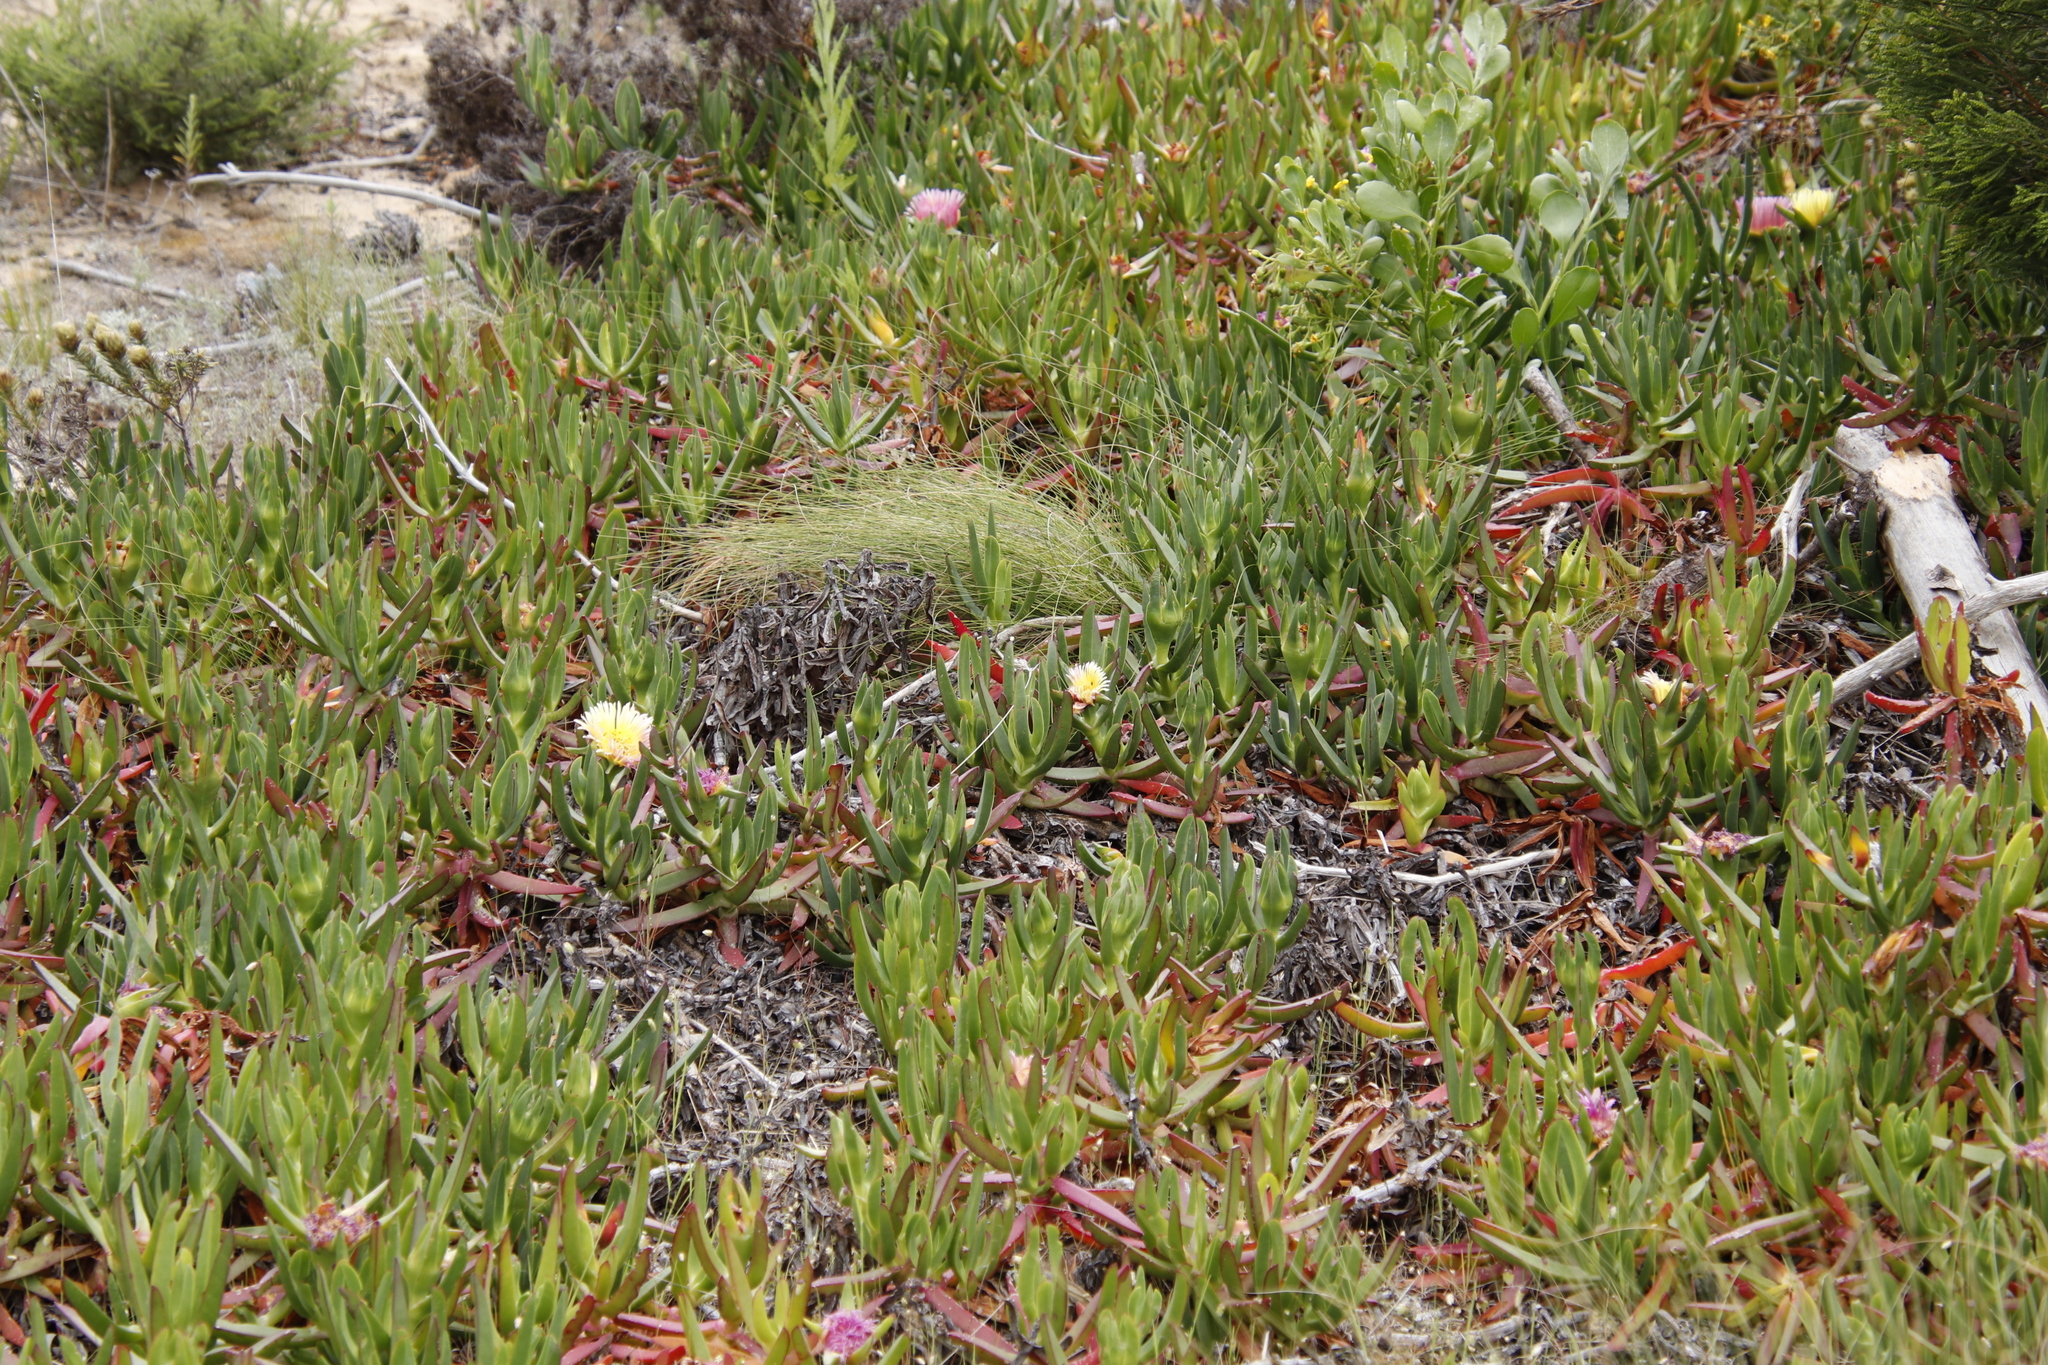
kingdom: Plantae
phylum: Tracheophyta
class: Magnoliopsida
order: Caryophyllales
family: Aizoaceae
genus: Carpobrotus
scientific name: Carpobrotus edulis
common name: Hottentot-fig
